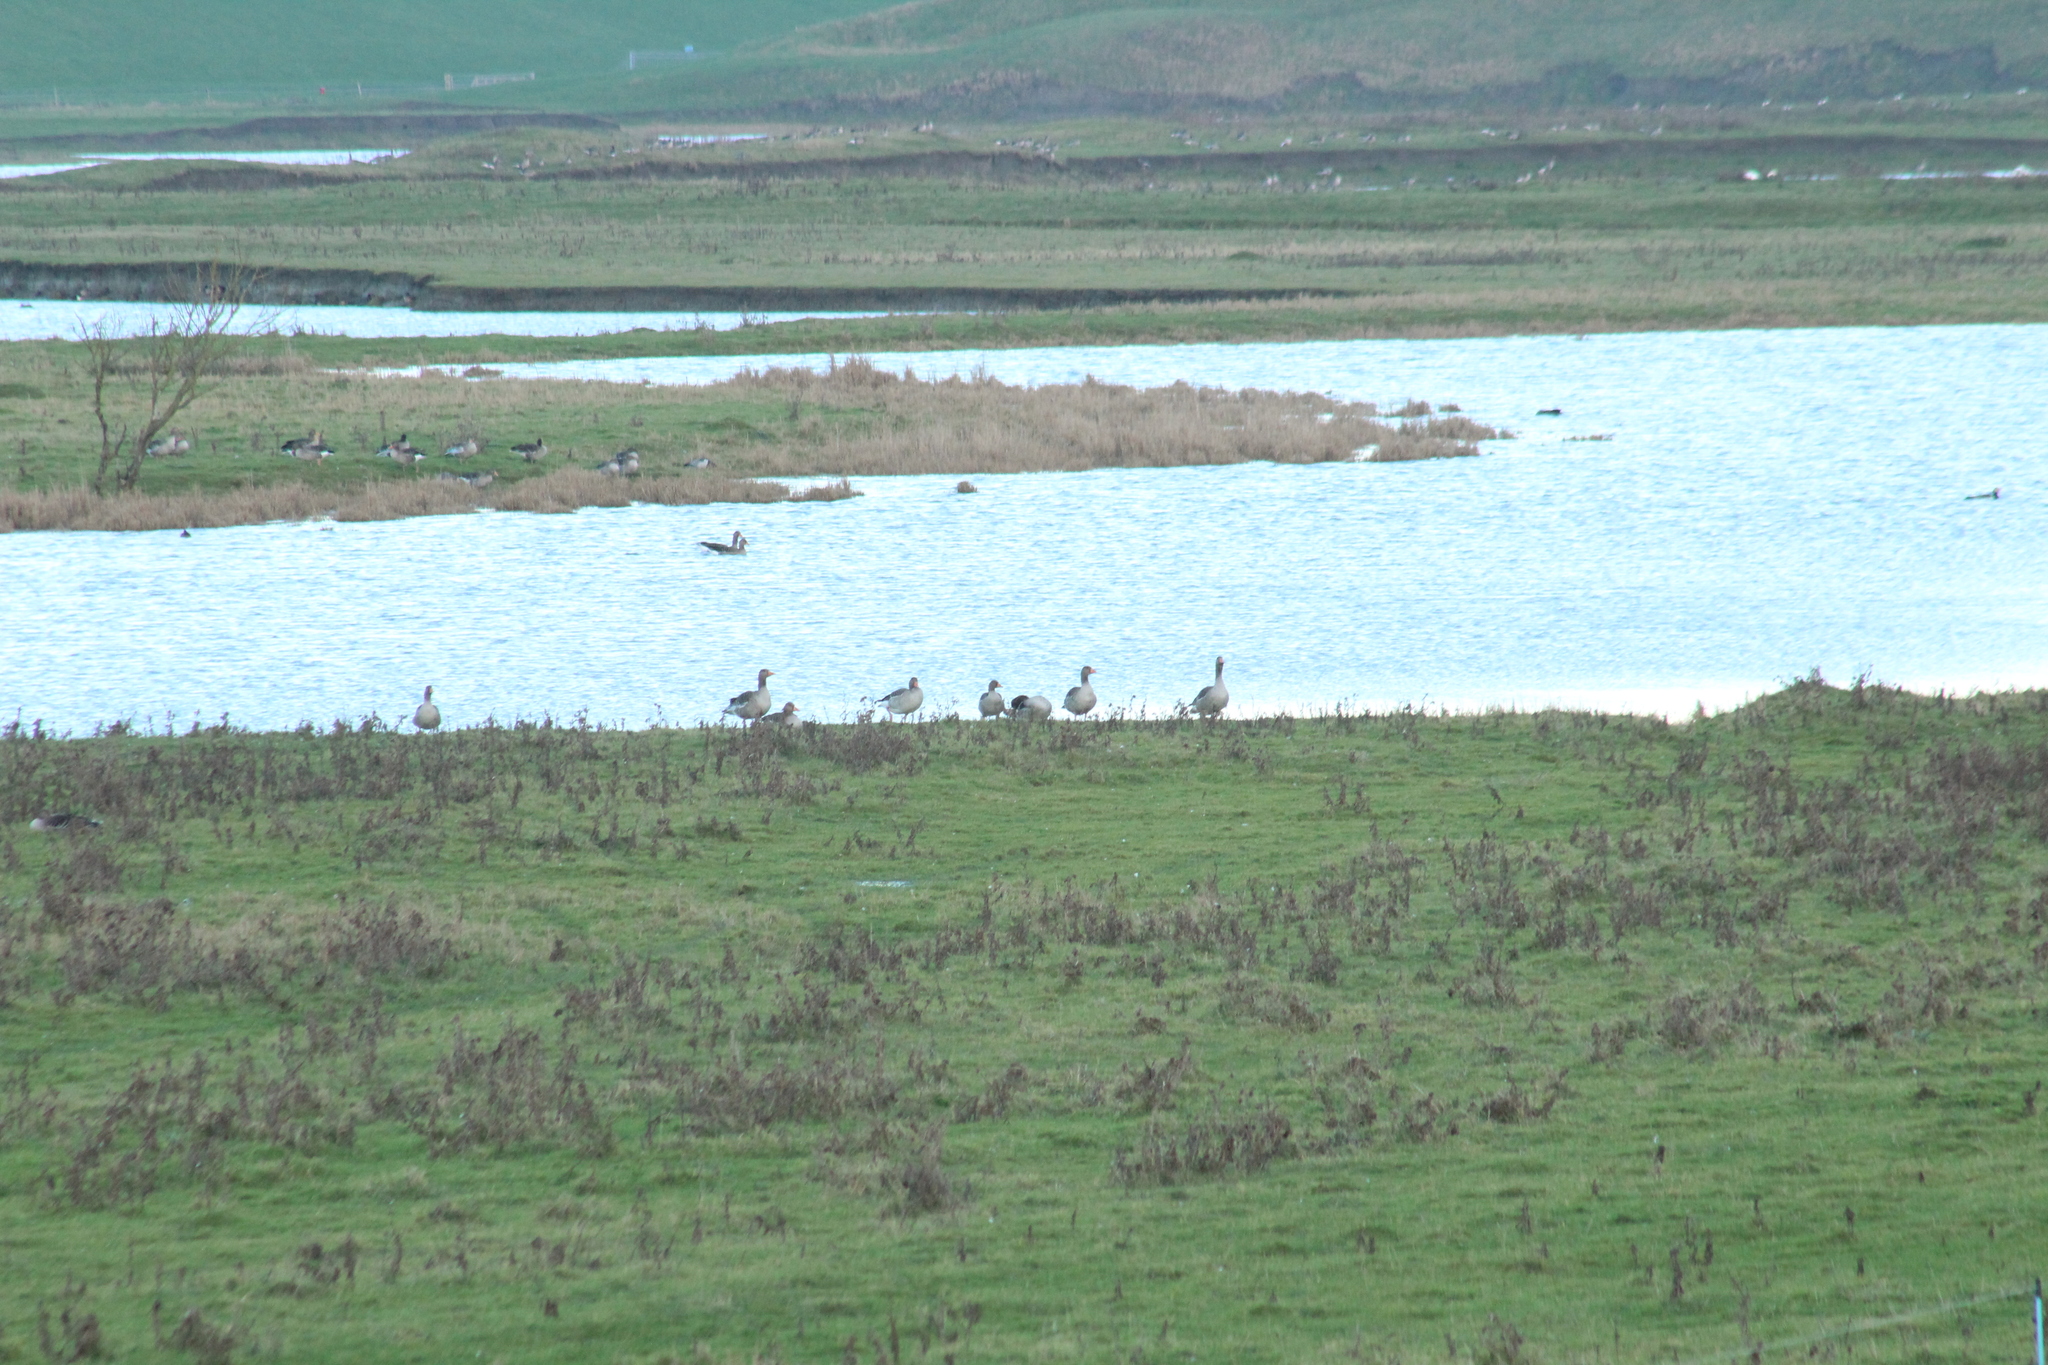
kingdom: Animalia
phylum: Chordata
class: Aves
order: Anseriformes
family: Anatidae
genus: Anser
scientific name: Anser anser
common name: Greylag goose
